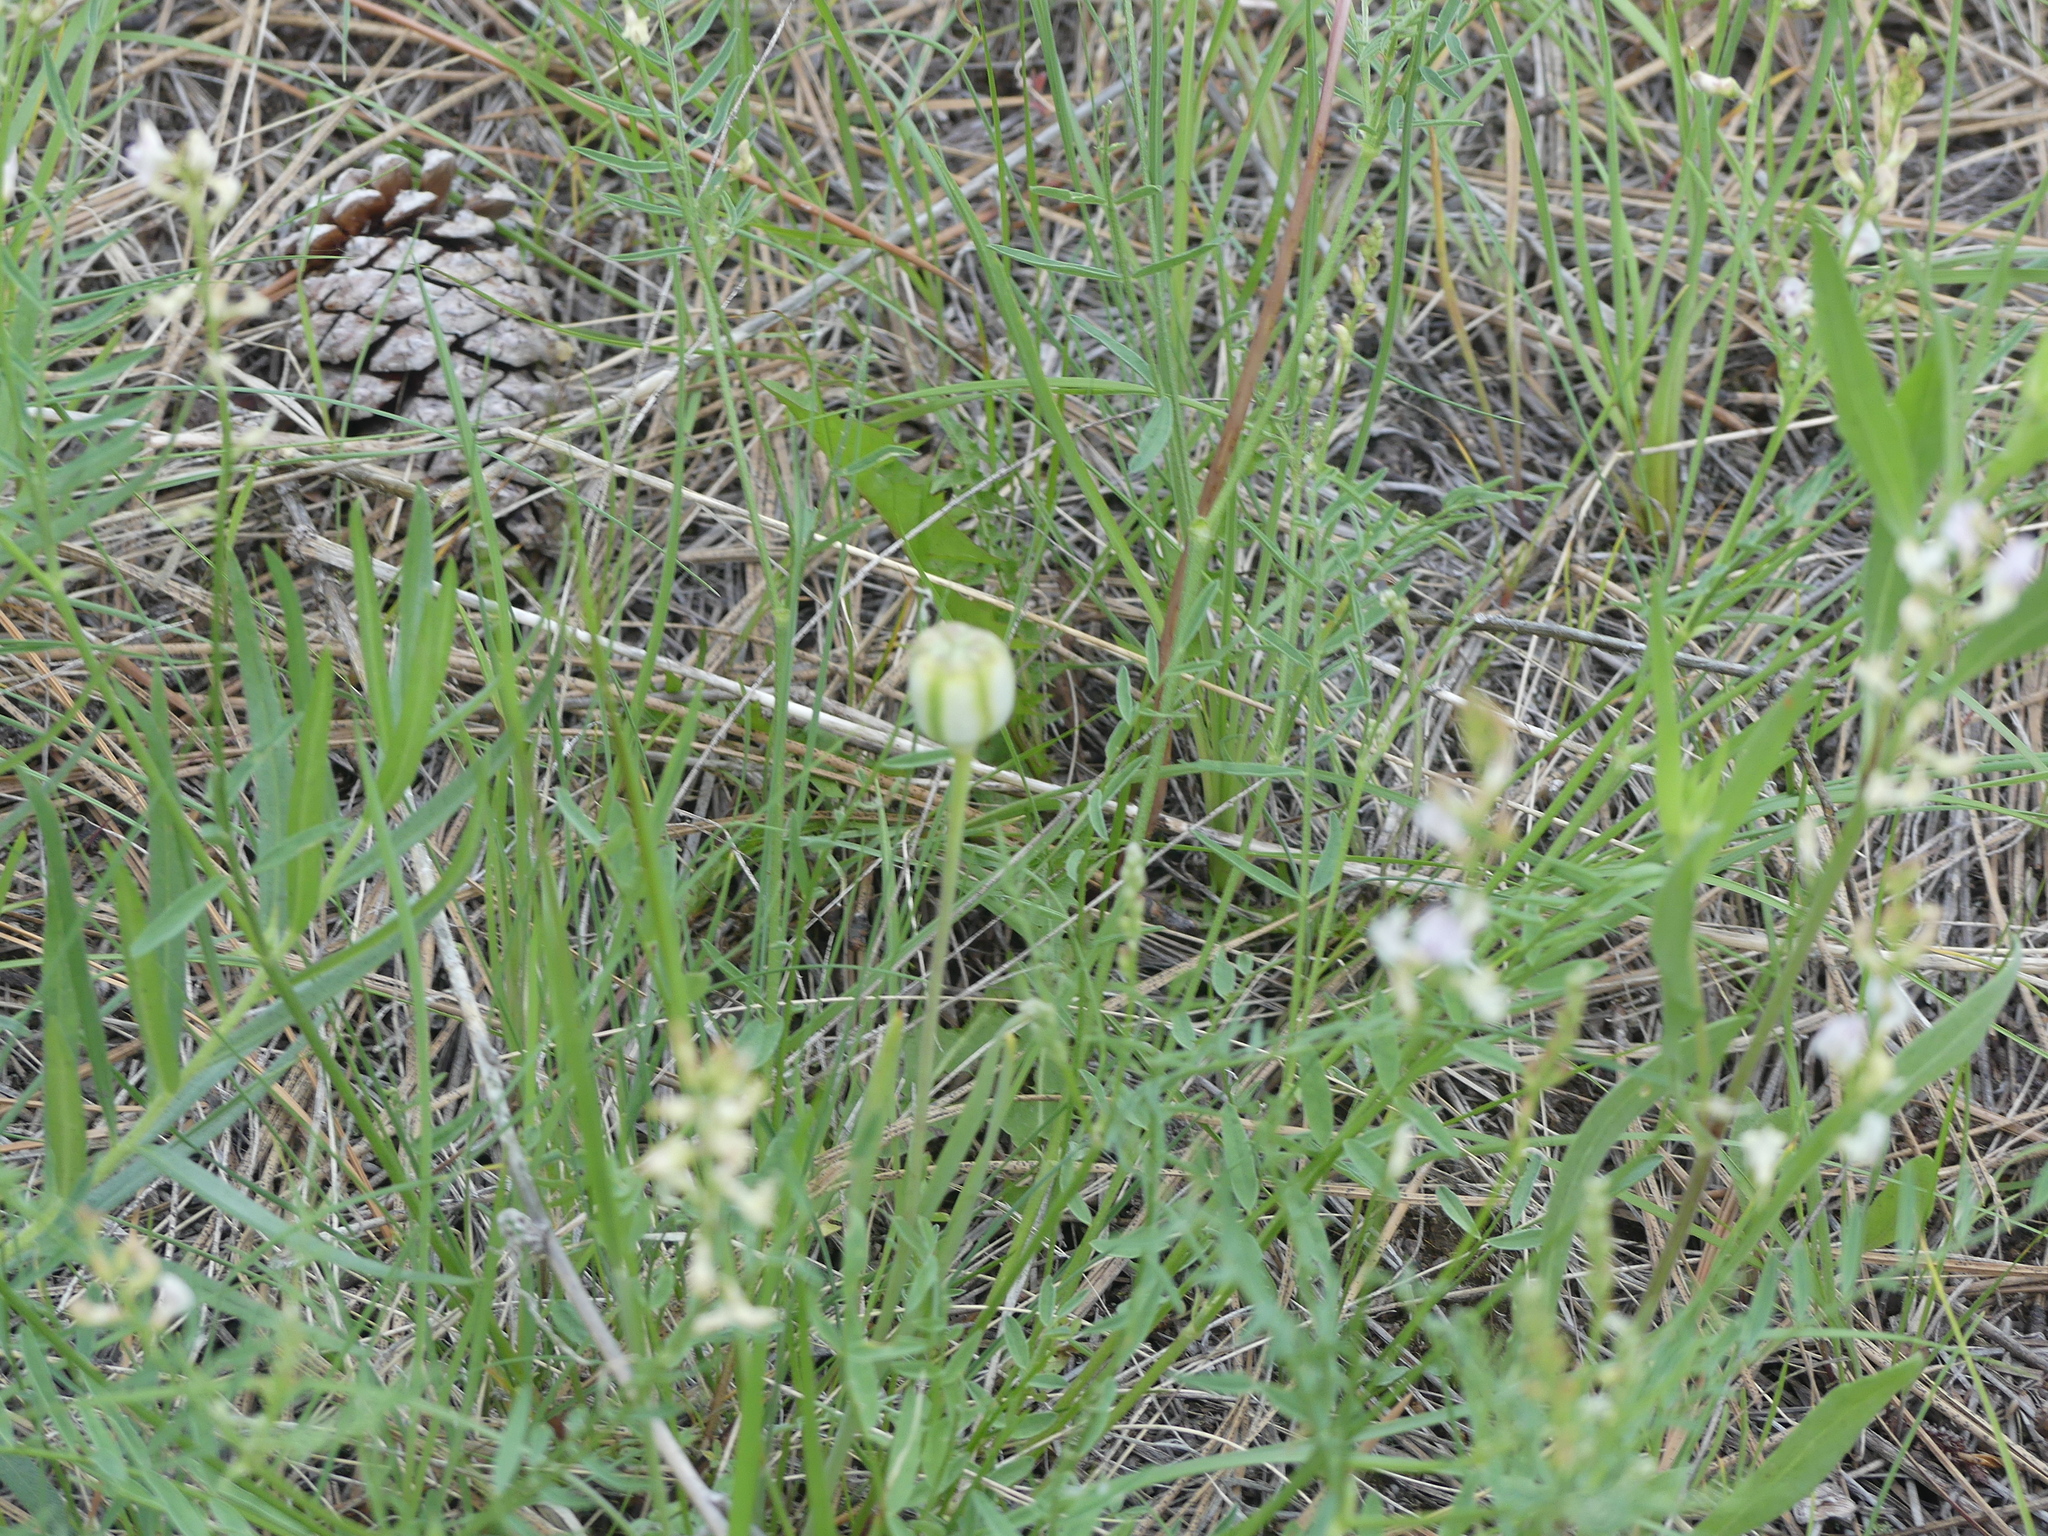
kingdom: Plantae
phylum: Tracheophyta
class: Liliopsida
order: Liliales
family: Liliaceae
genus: Fritillaria
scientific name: Fritillaria pudica
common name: Yellow fritillary
